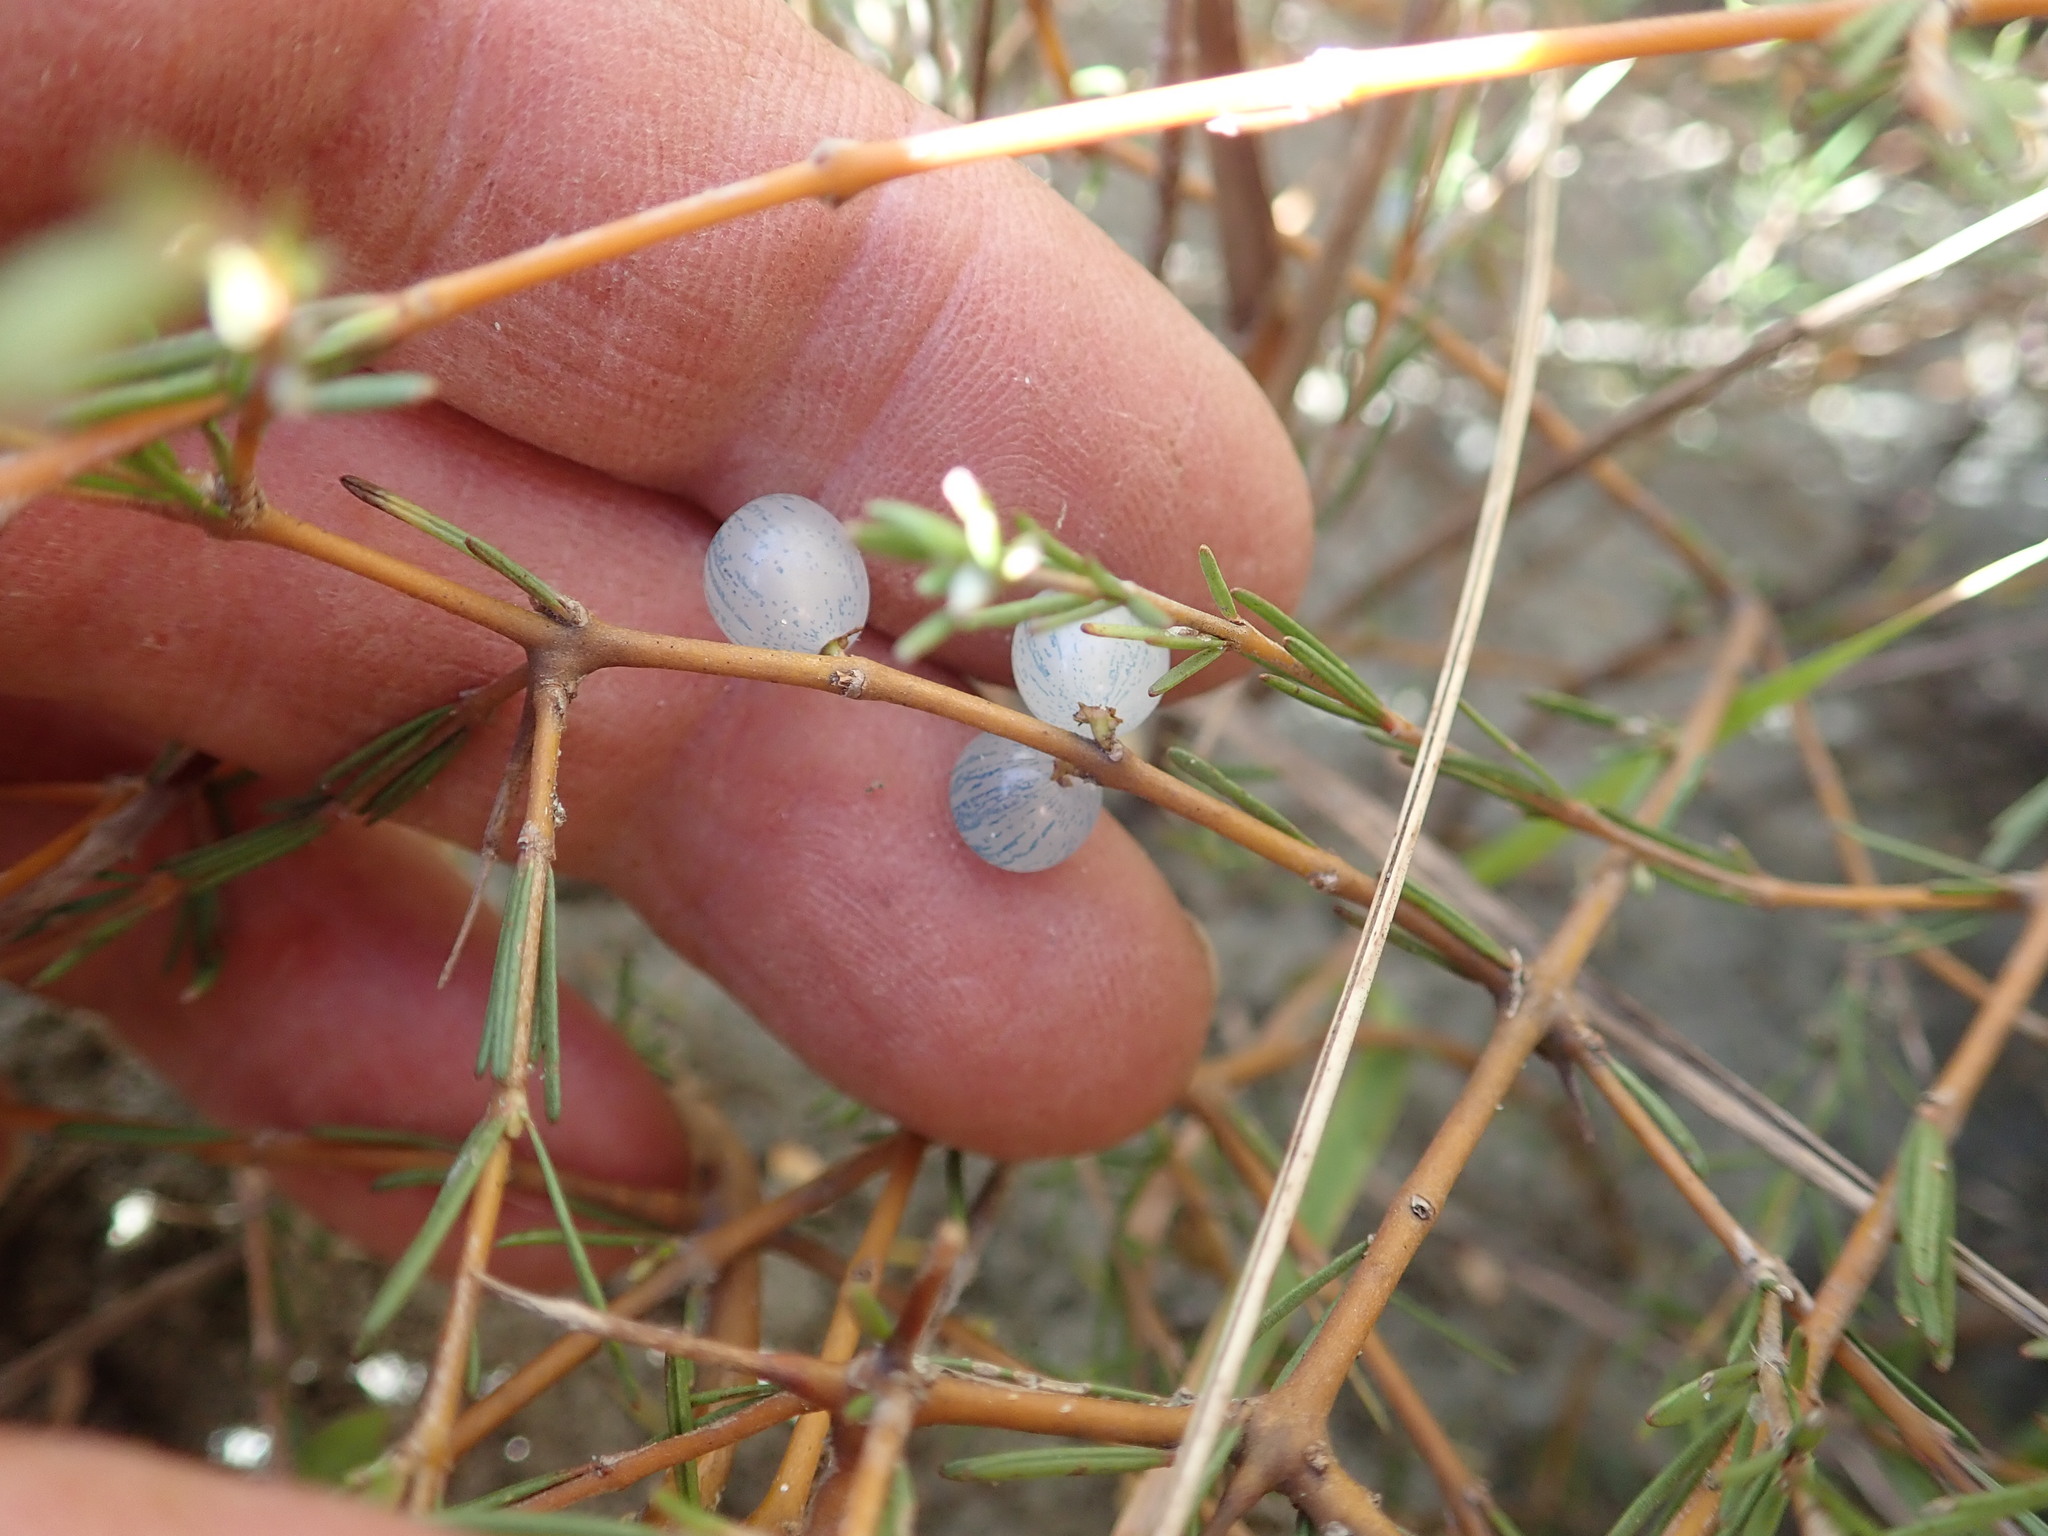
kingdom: Plantae
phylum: Tracheophyta
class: Magnoliopsida
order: Gentianales
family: Rubiaceae
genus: Coprosma
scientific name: Coprosma acerosa
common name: Sand coprosma
